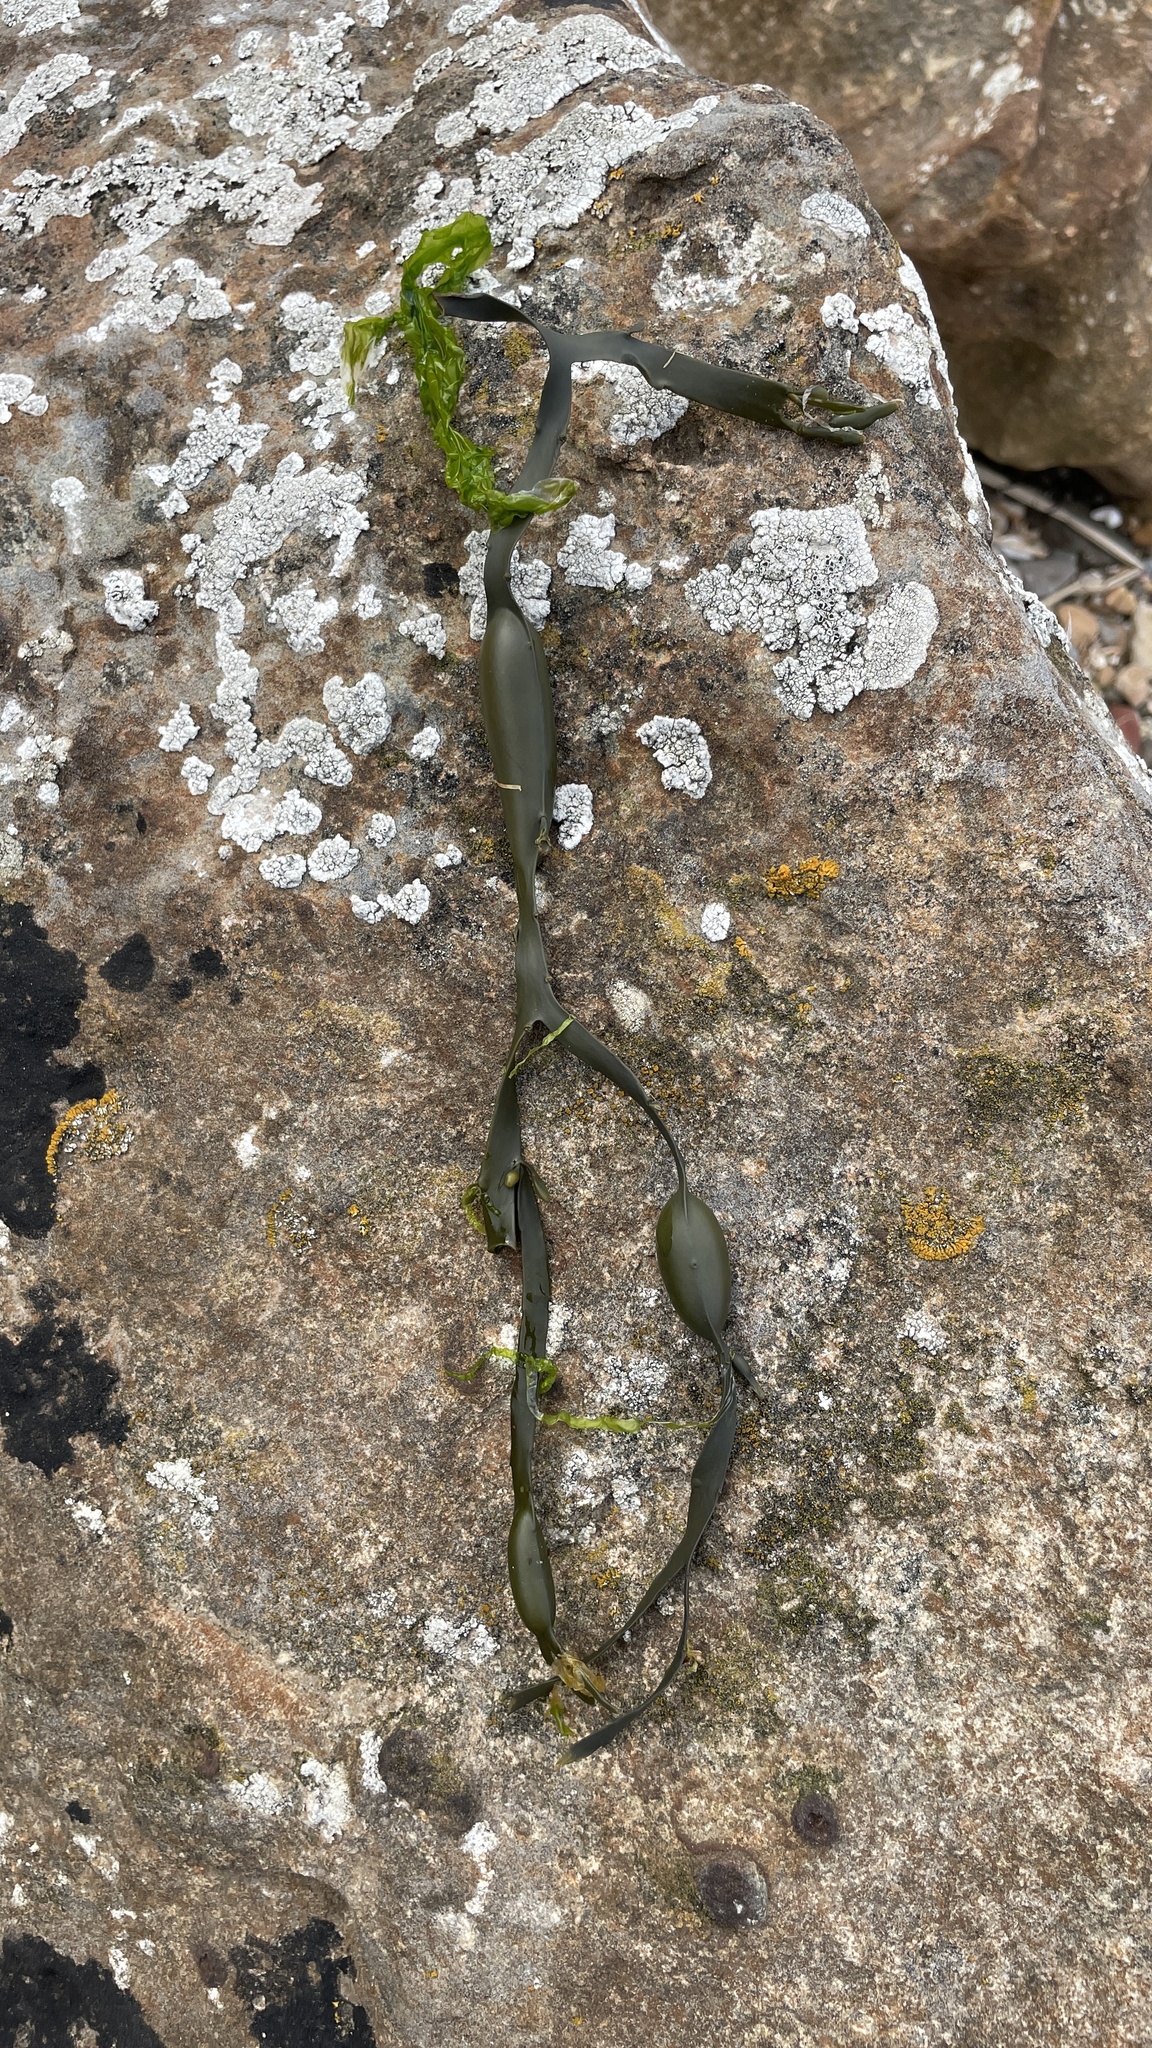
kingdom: Chromista
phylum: Ochrophyta
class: Phaeophyceae
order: Fucales
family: Fucaceae
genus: Ascophyllum
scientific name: Ascophyllum nodosum
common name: Knotted wrack
